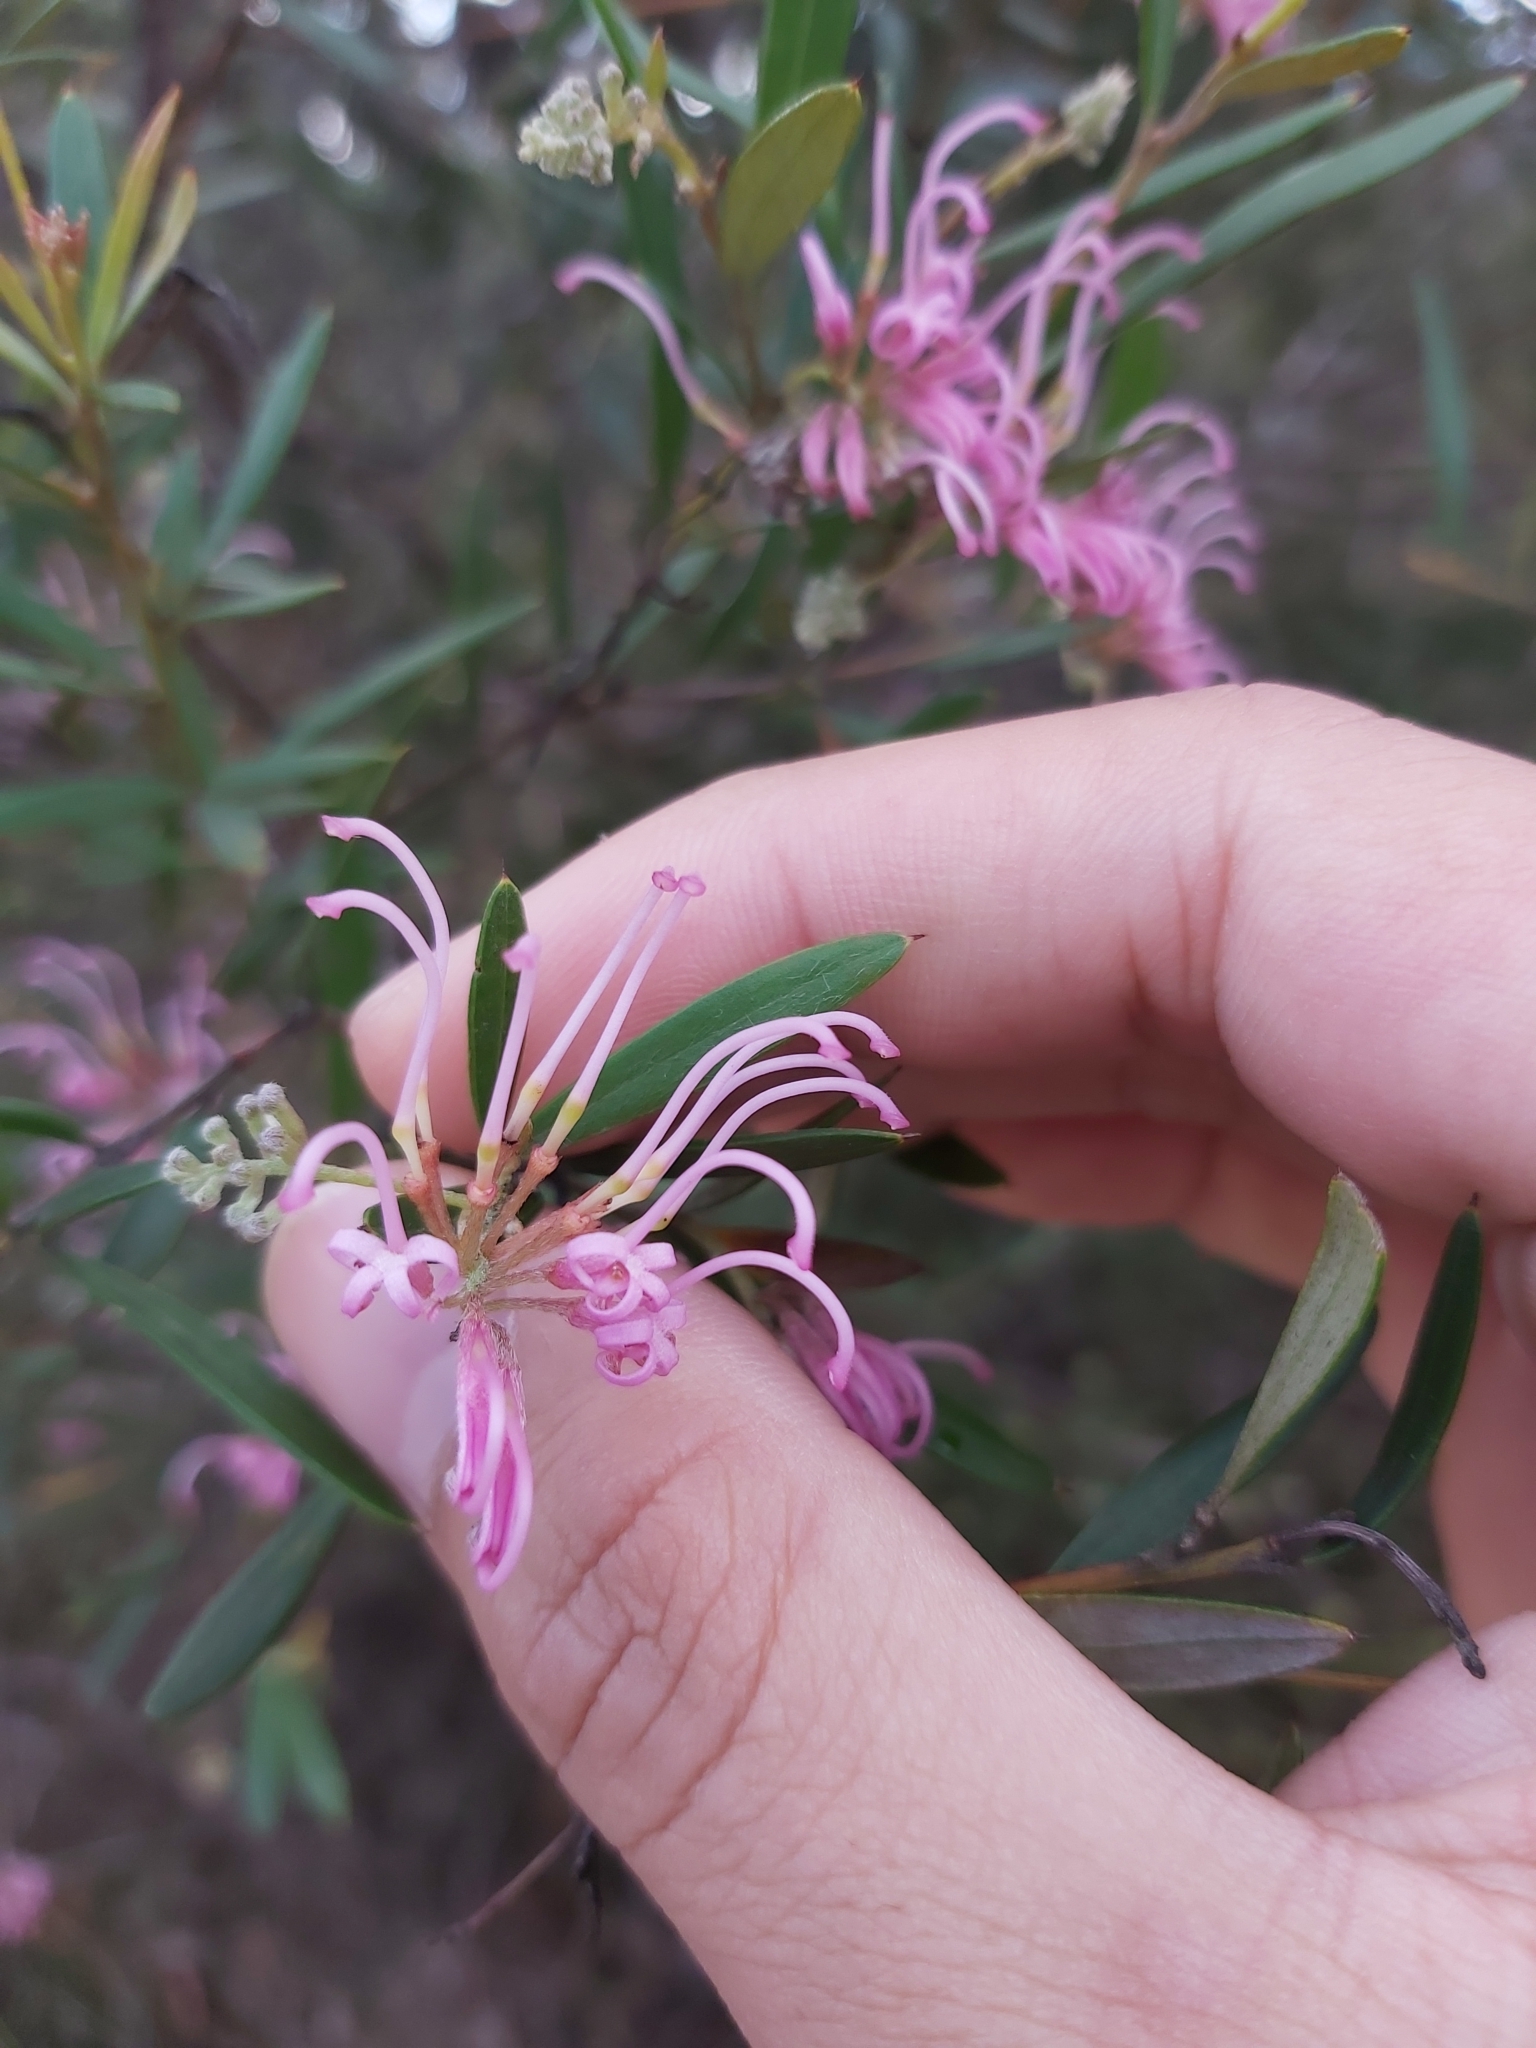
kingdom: Plantae
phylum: Tracheophyta
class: Magnoliopsida
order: Proteales
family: Proteaceae
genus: Grevillea
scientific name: Grevillea sericea
